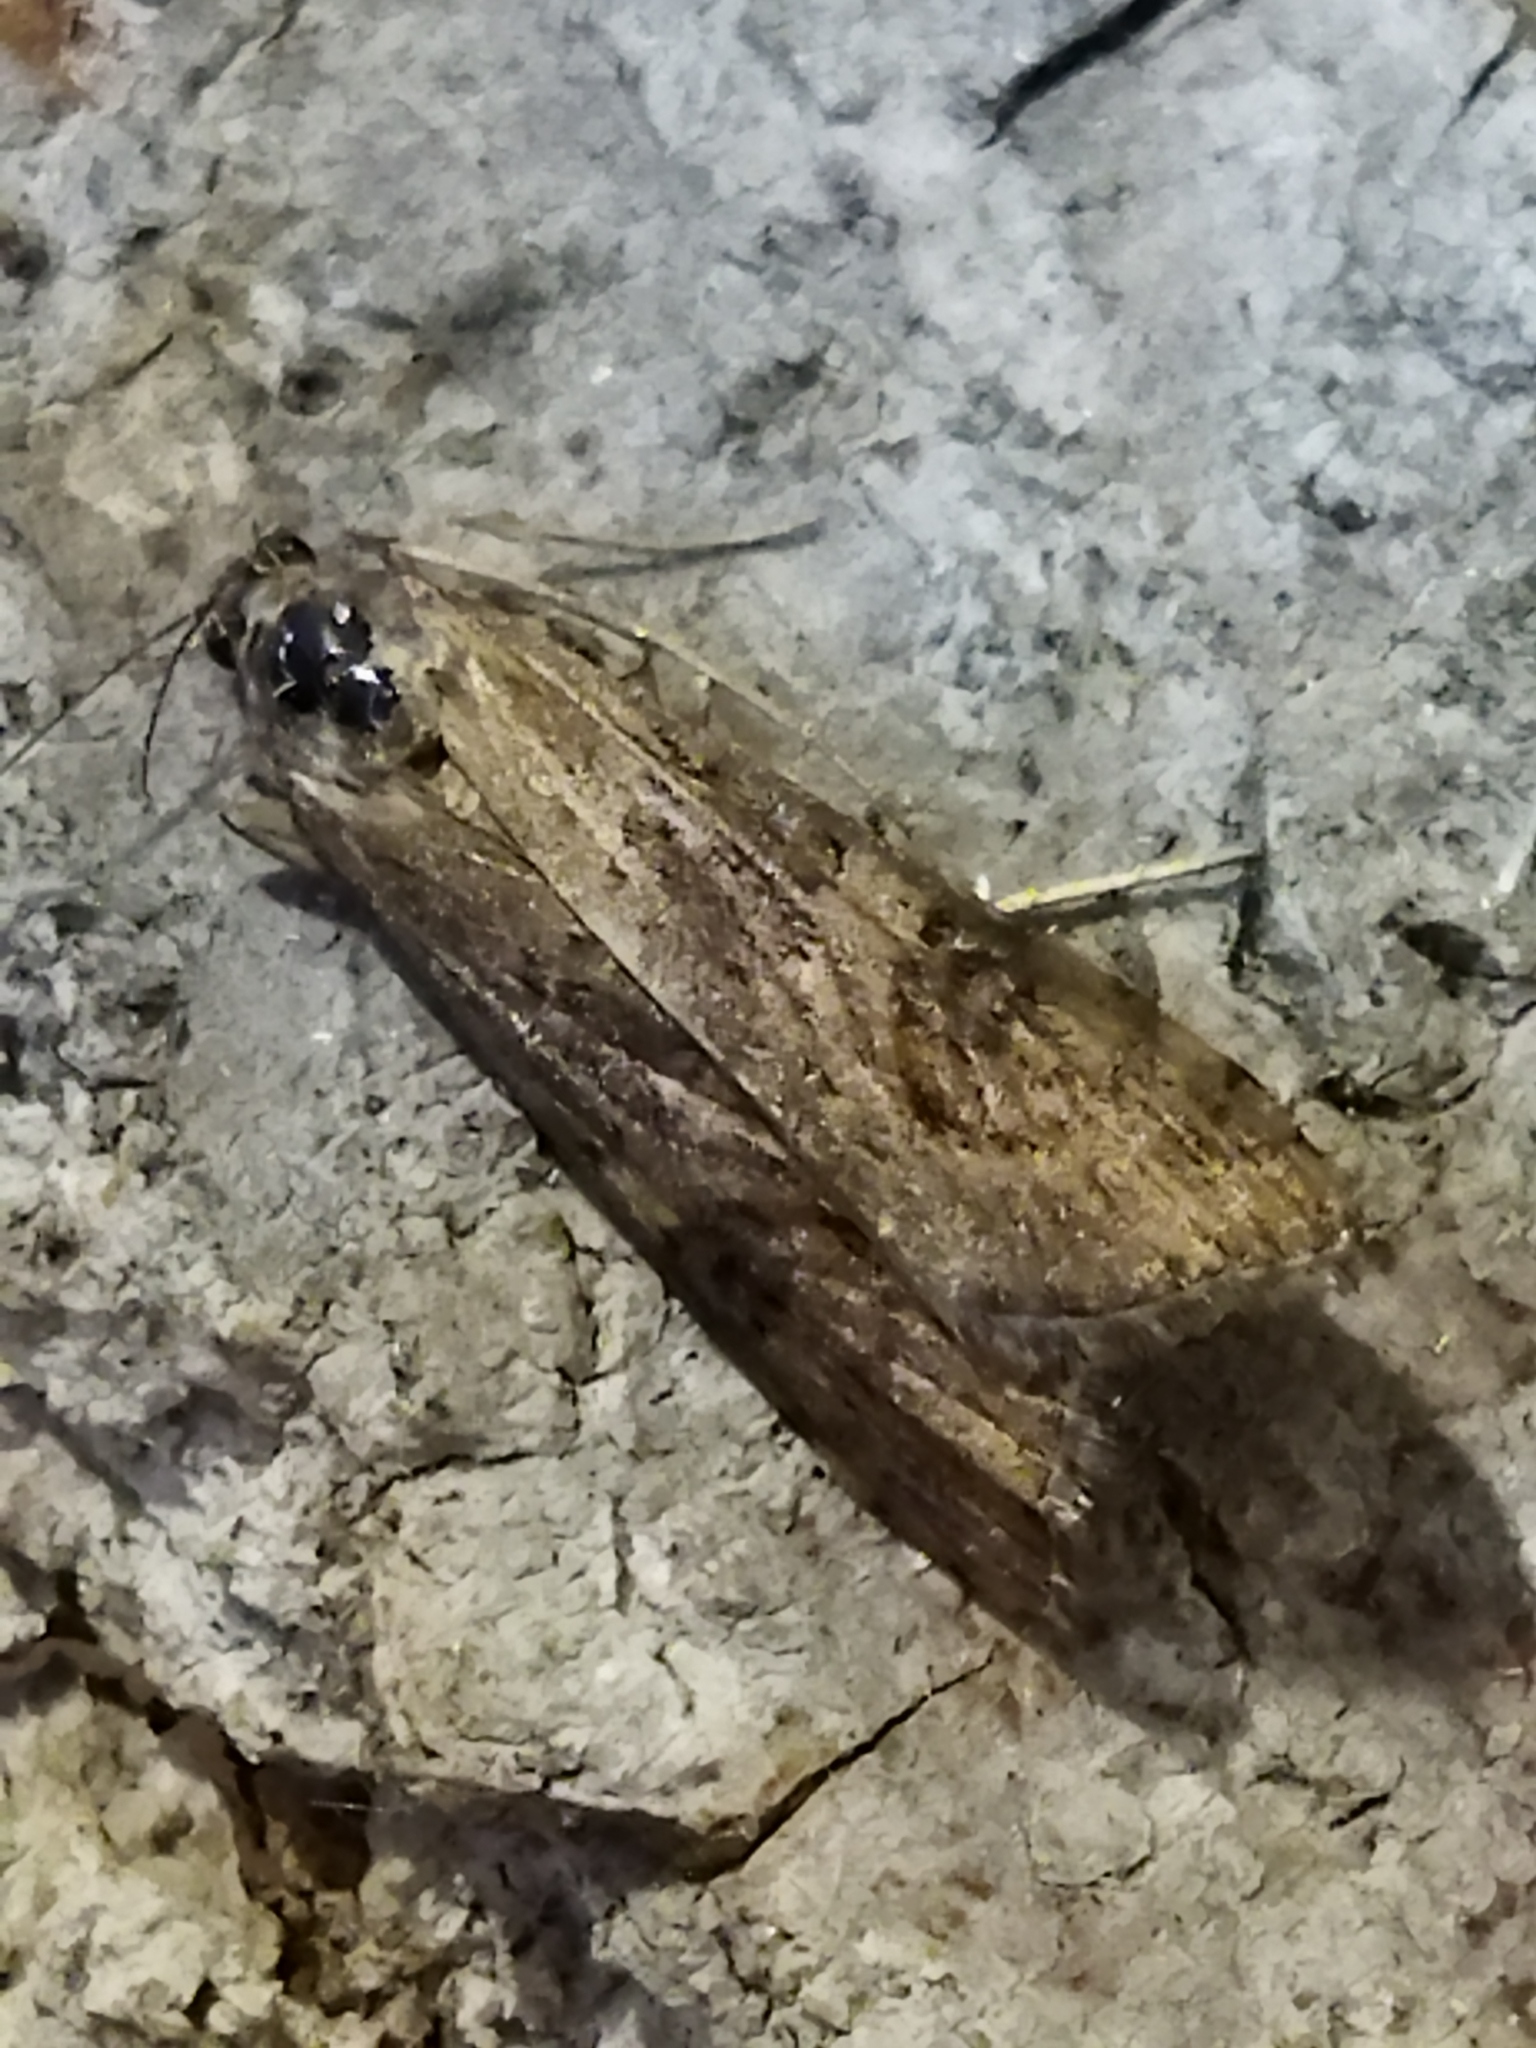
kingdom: Animalia
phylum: Arthropoda
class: Insecta
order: Lepidoptera
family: Crambidae
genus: Nomophila
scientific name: Nomophila noctuella
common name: Rush veneer
